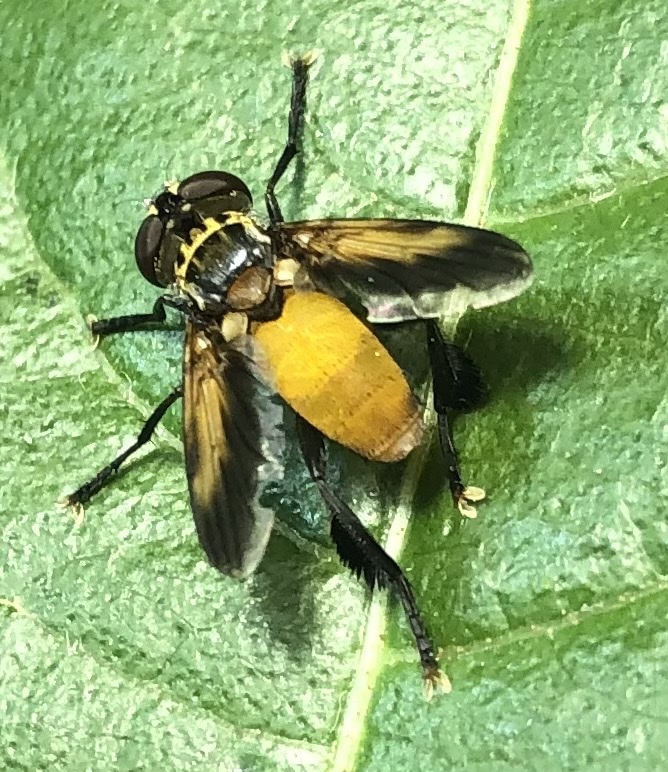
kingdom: Animalia
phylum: Arthropoda
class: Insecta
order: Diptera
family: Tachinidae
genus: Trichopoda
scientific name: Trichopoda pennipes
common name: Tachinid fly
